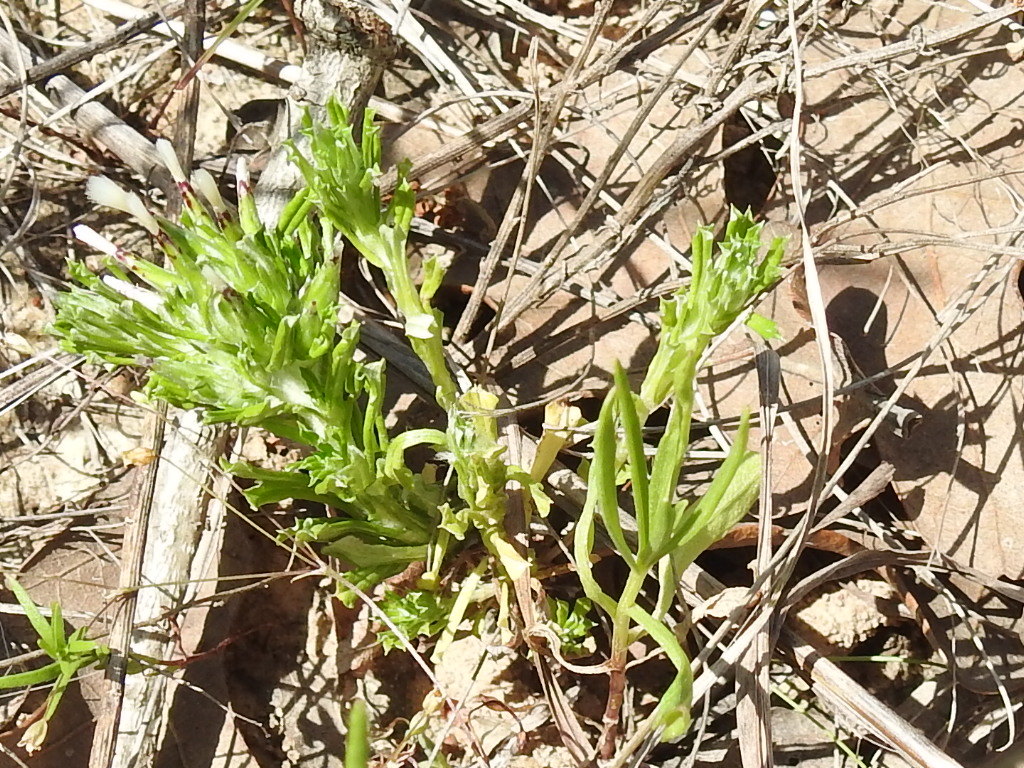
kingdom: Plantae
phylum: Tracheophyta
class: Magnoliopsida
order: Asterales
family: Asteraceae
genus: Facelis
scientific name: Facelis retusa
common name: Annual trampweed
